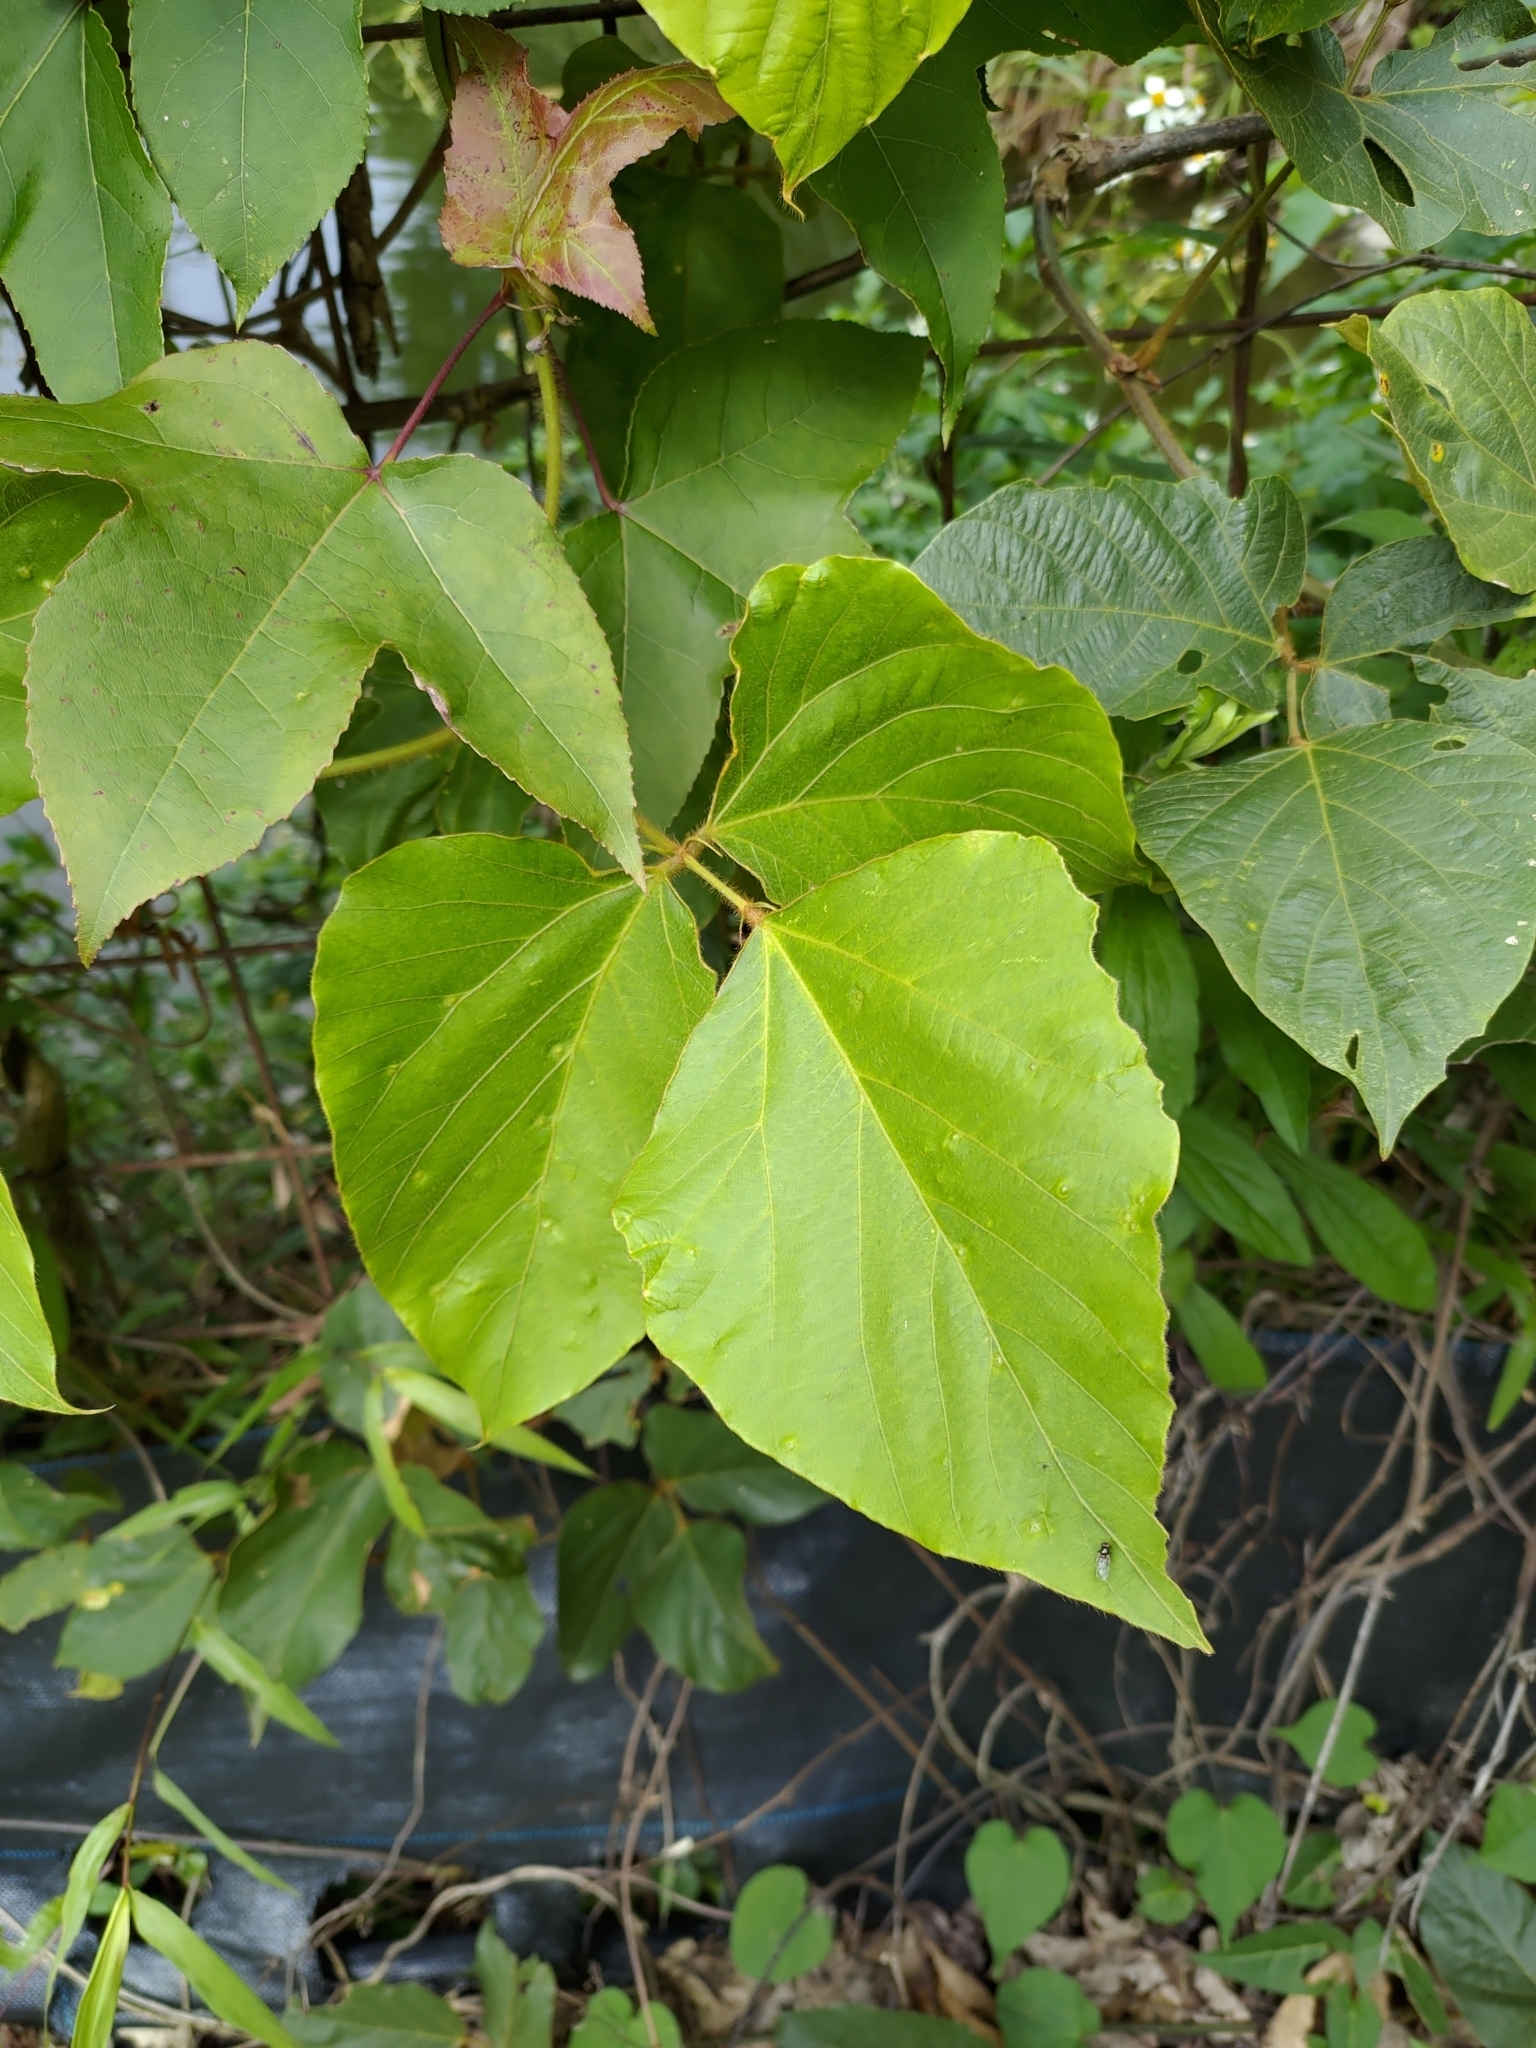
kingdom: Plantae
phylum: Tracheophyta
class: Magnoliopsida
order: Fabales
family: Fabaceae
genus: Pueraria
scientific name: Pueraria montana
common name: Kudzu
